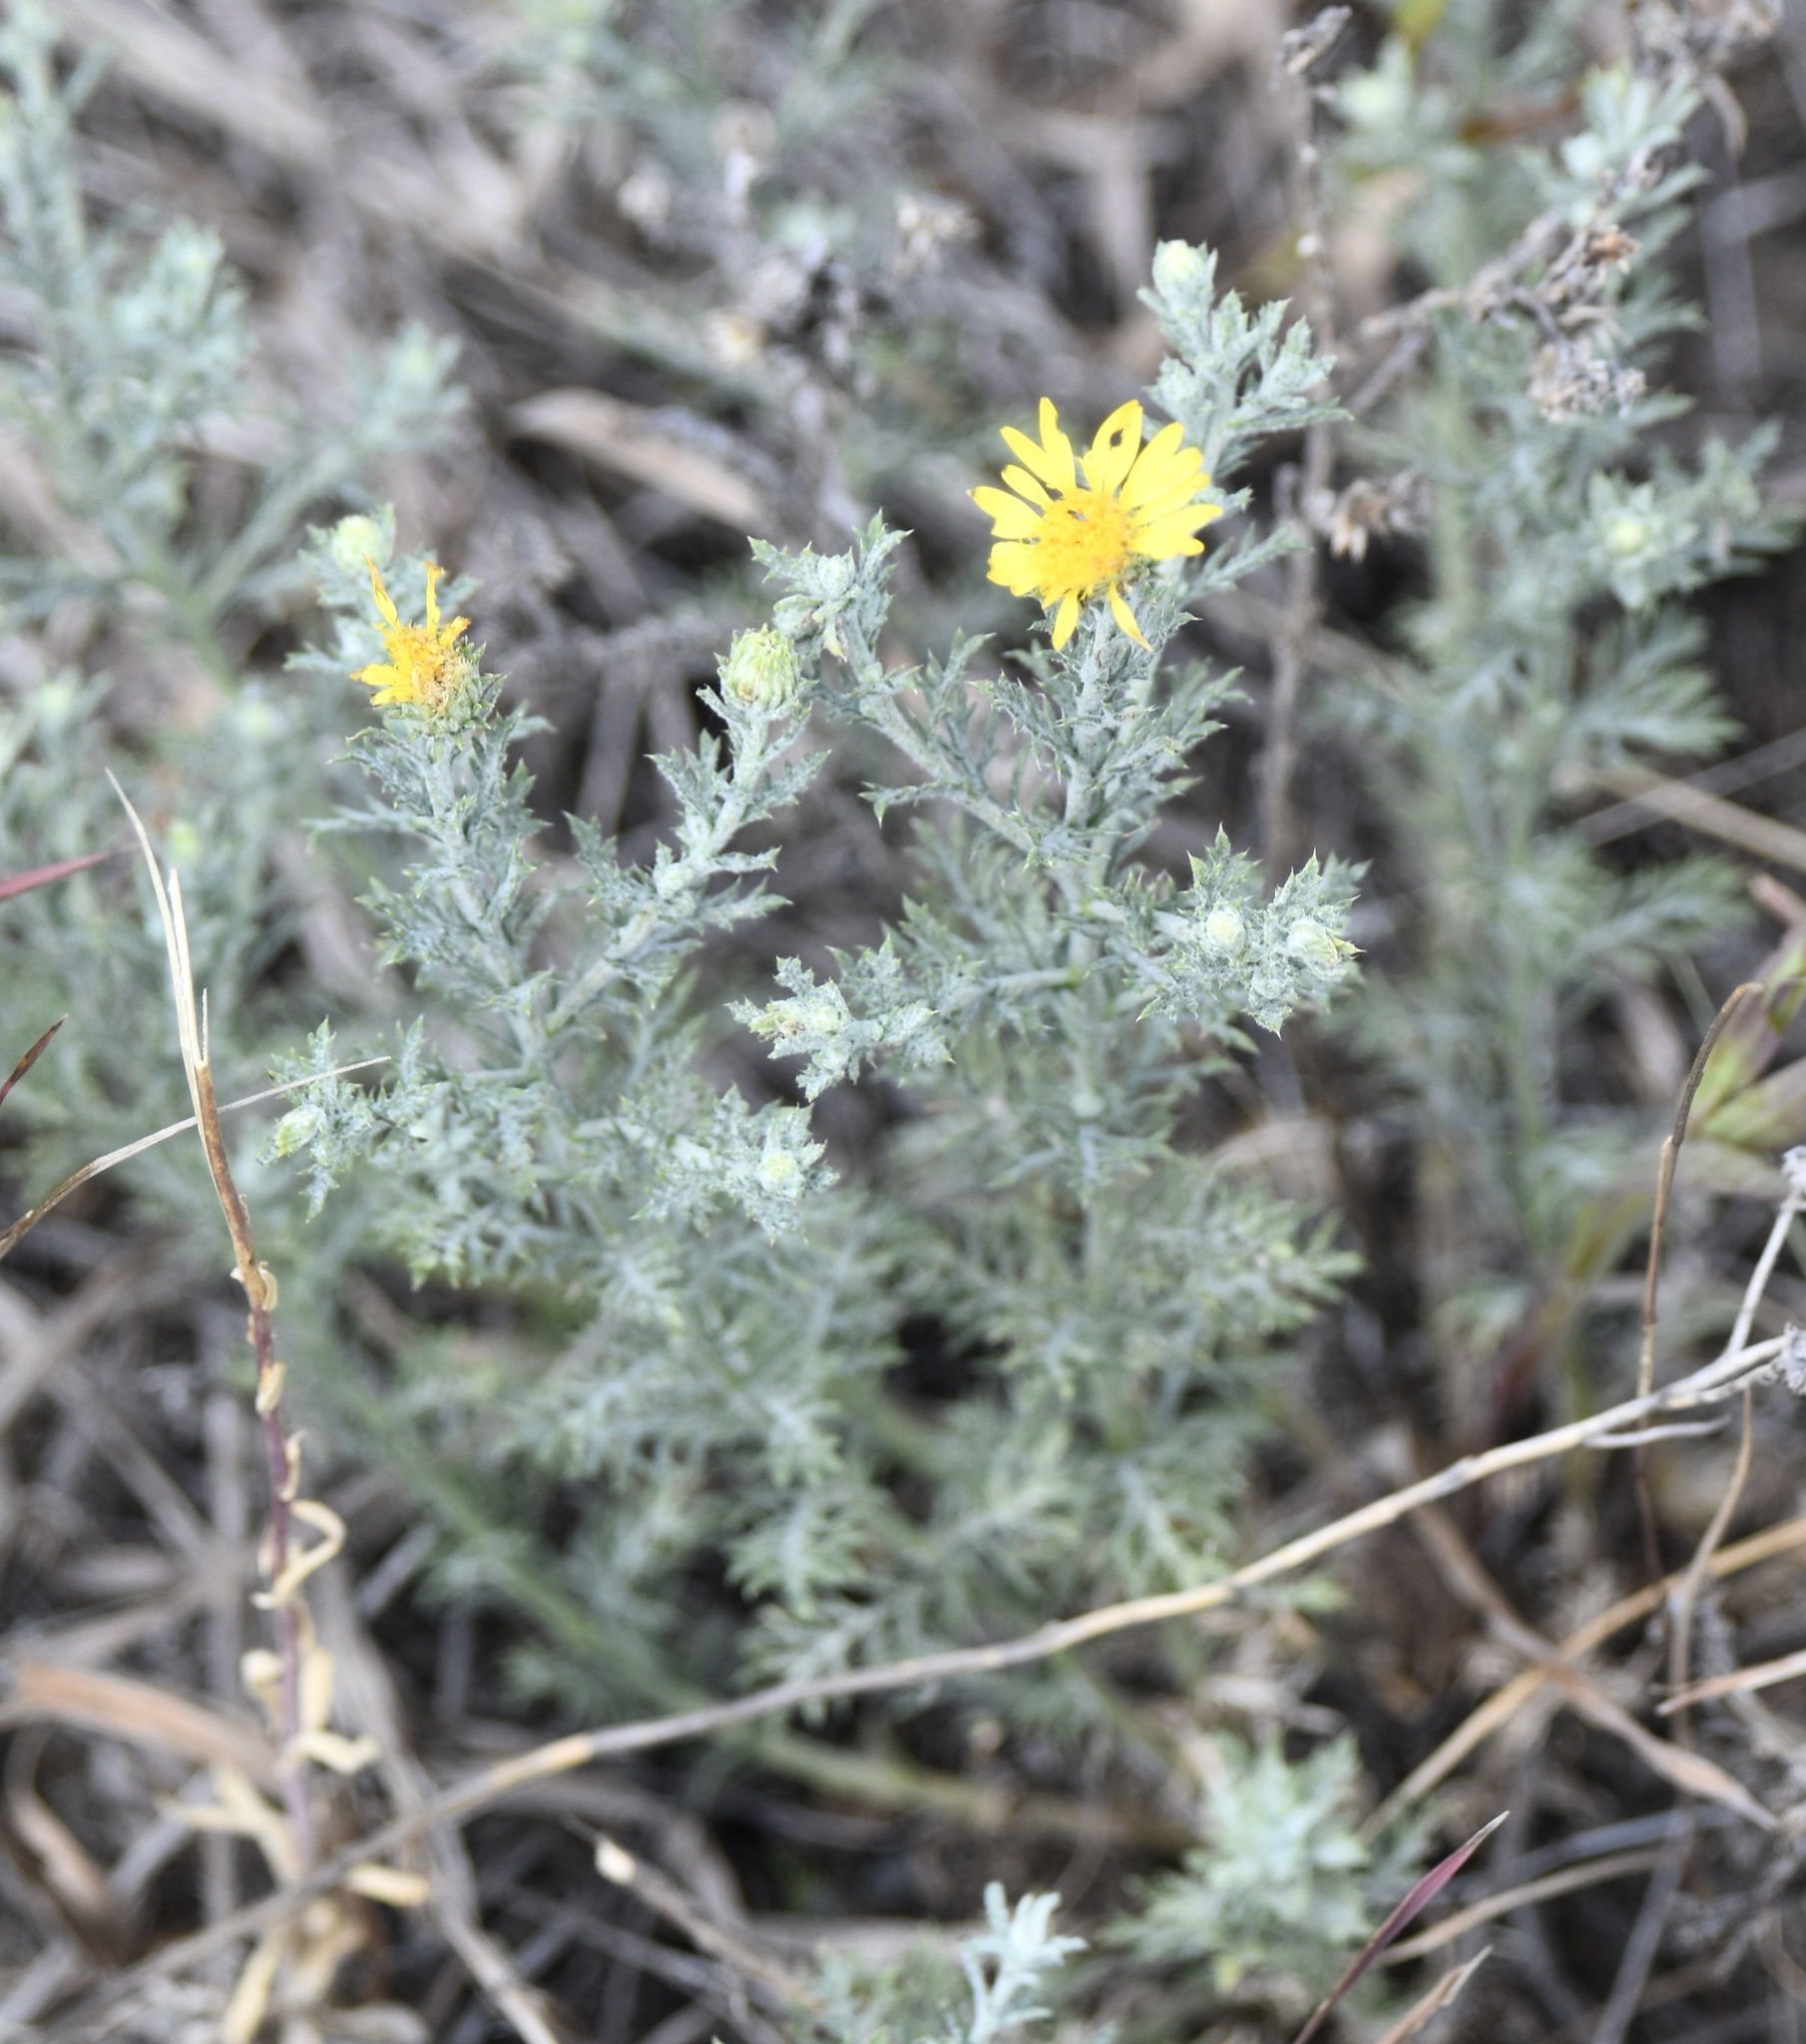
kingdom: Plantae
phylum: Tracheophyta
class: Magnoliopsida
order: Asterales
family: Asteraceae
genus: Xanthisma
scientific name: Xanthisma spinulosum
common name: Spiny goldenweed
